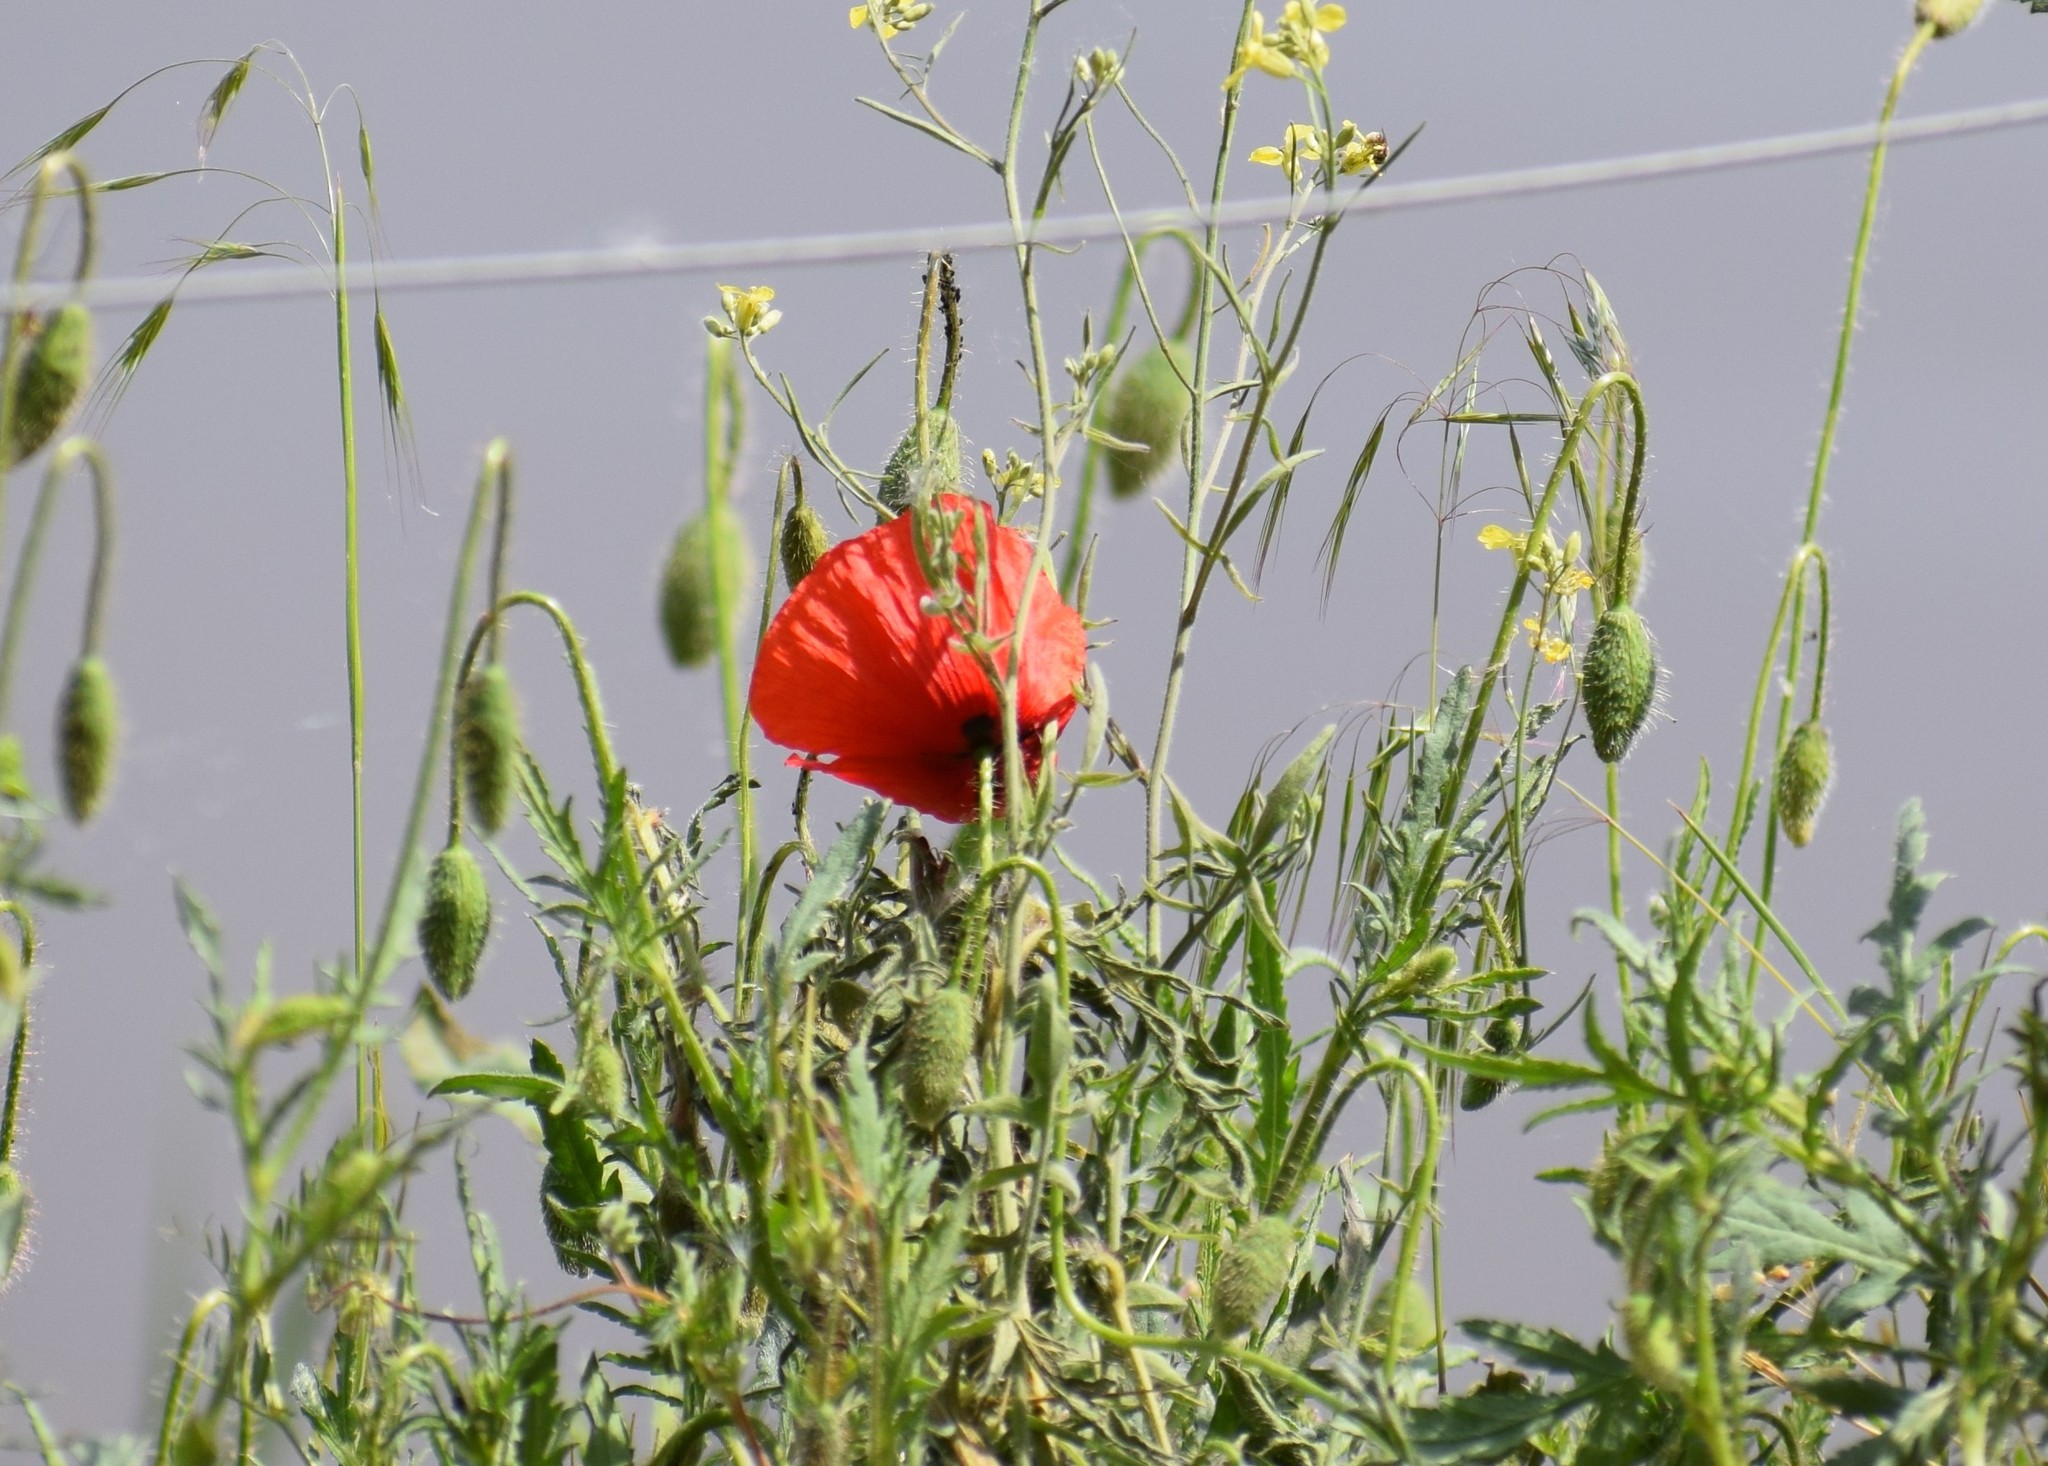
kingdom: Plantae
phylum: Tracheophyta
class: Magnoliopsida
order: Ranunculales
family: Papaveraceae
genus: Papaver
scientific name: Papaver rhoeas
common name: Corn poppy
